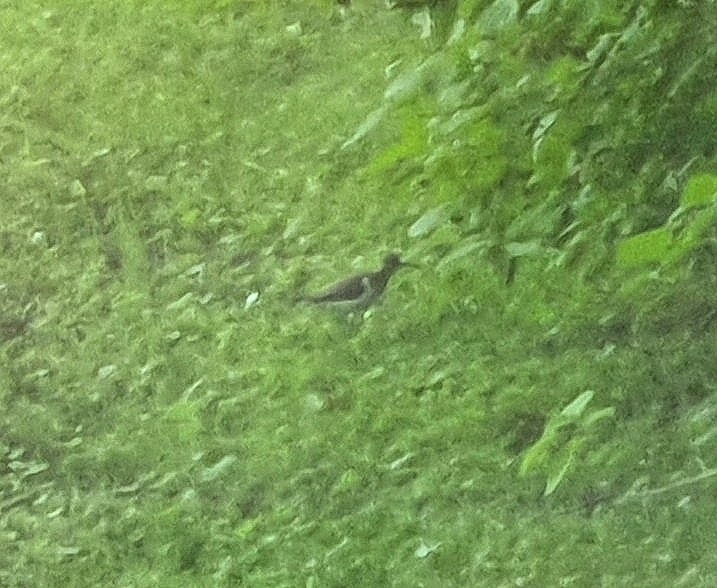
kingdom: Animalia
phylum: Chordata
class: Aves
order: Charadriiformes
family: Scolopacidae
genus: Actitis
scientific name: Actitis hypoleucos
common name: Common sandpiper
